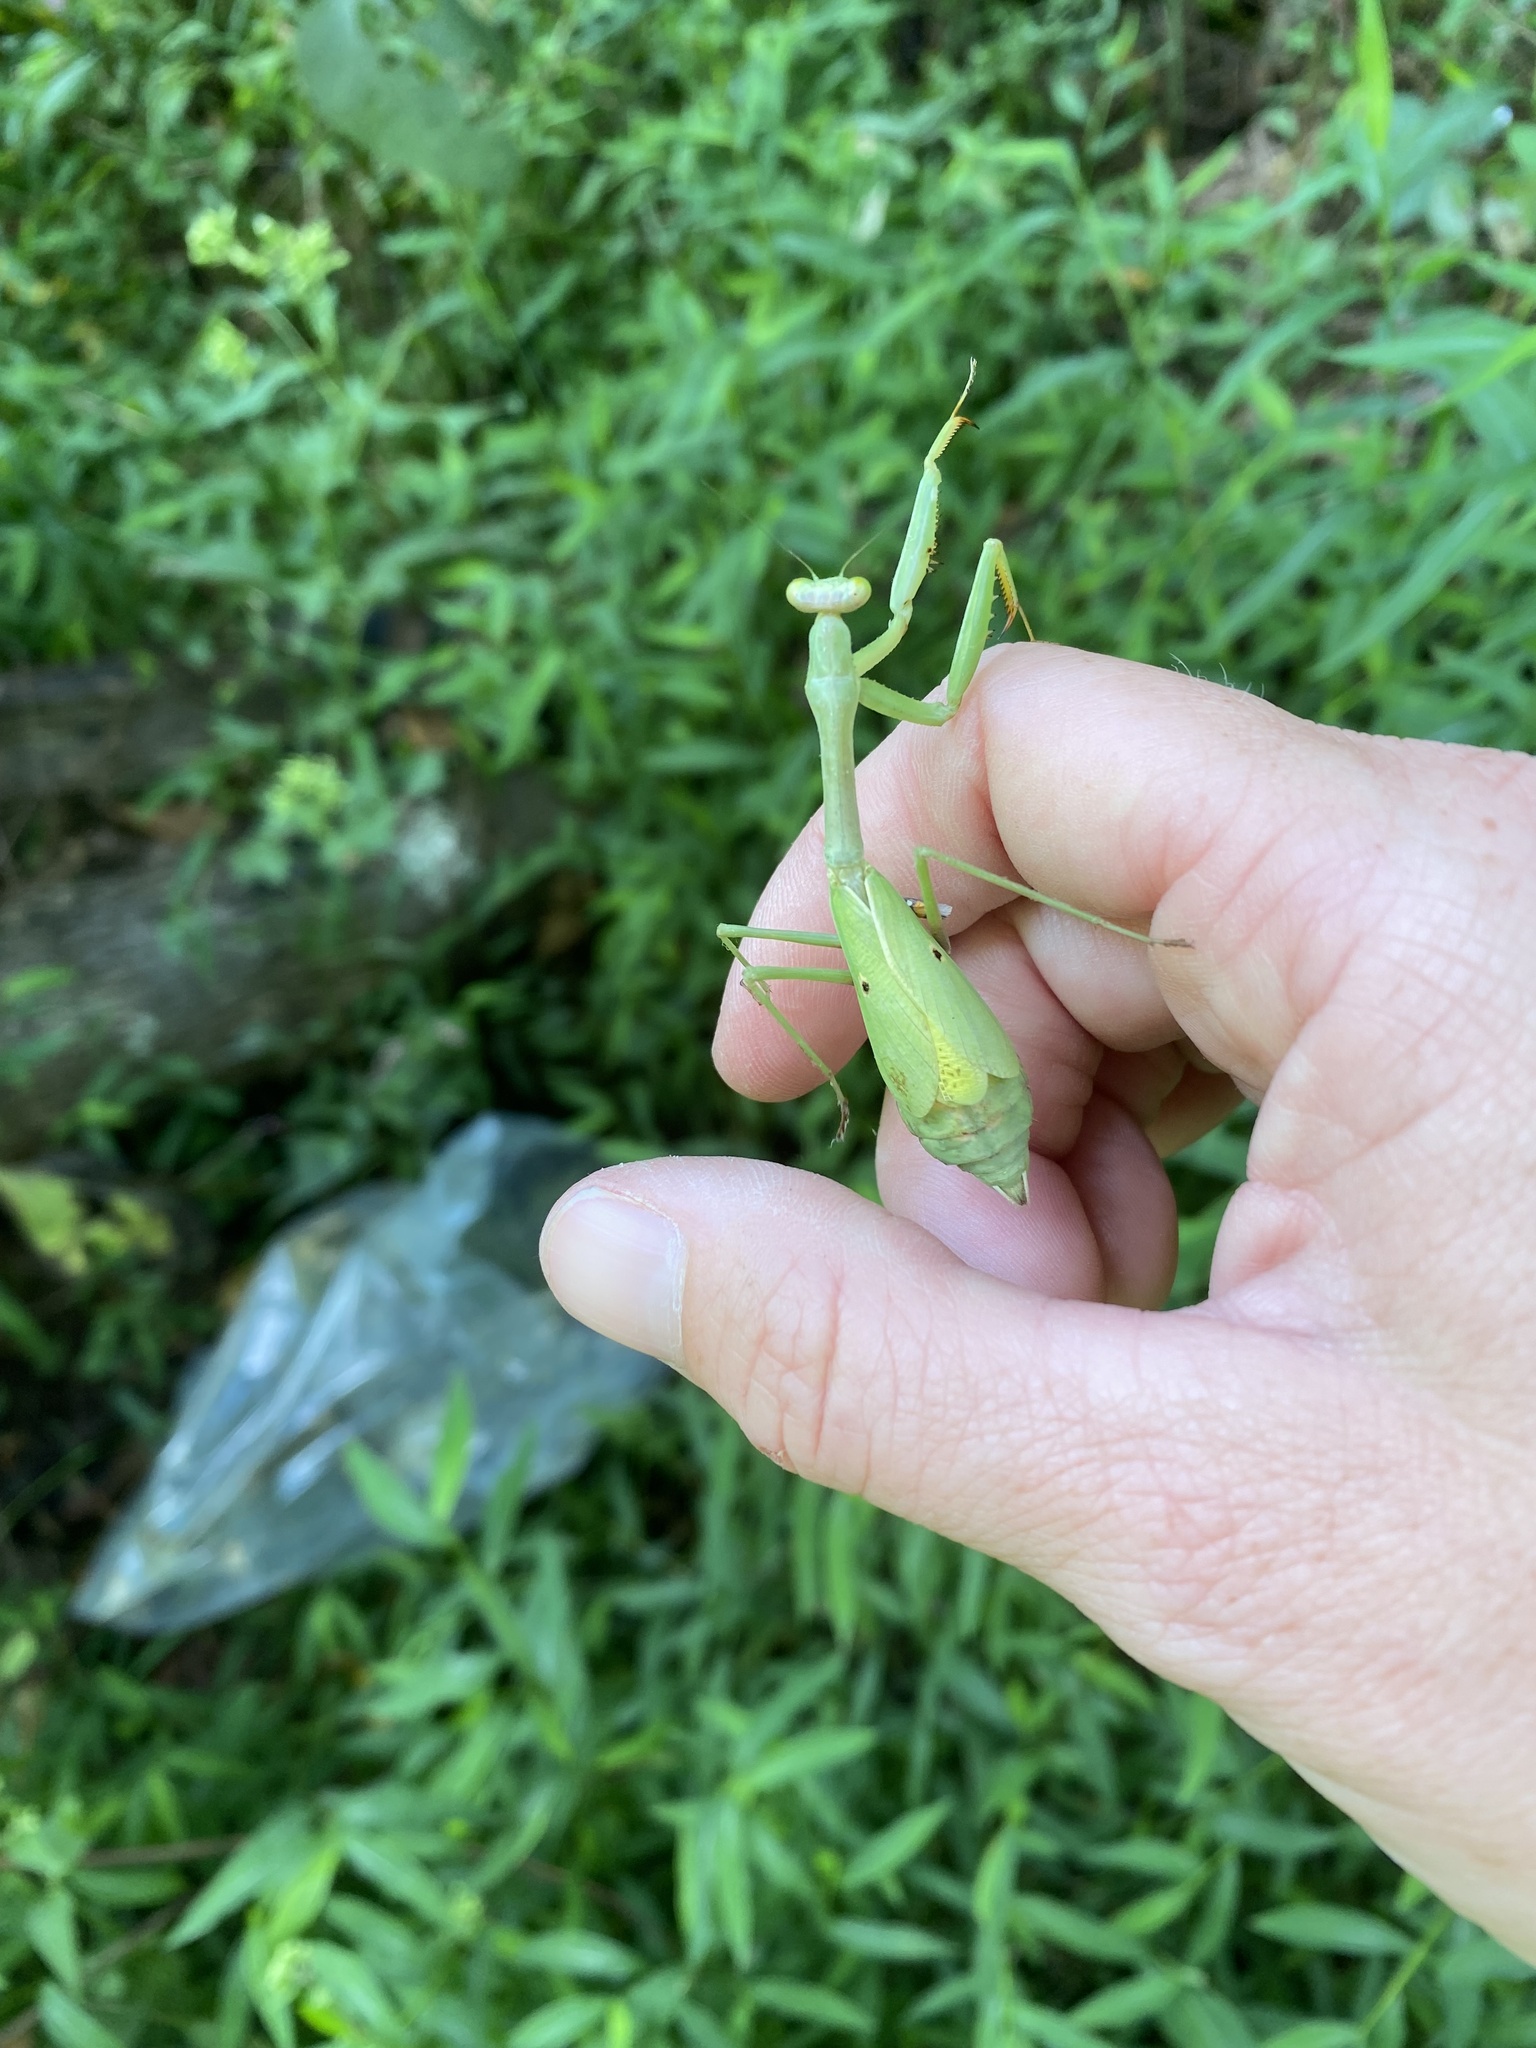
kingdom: Animalia
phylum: Arthropoda
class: Insecta
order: Mantodea
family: Mantidae
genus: Stagmomantis
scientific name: Stagmomantis carolina
